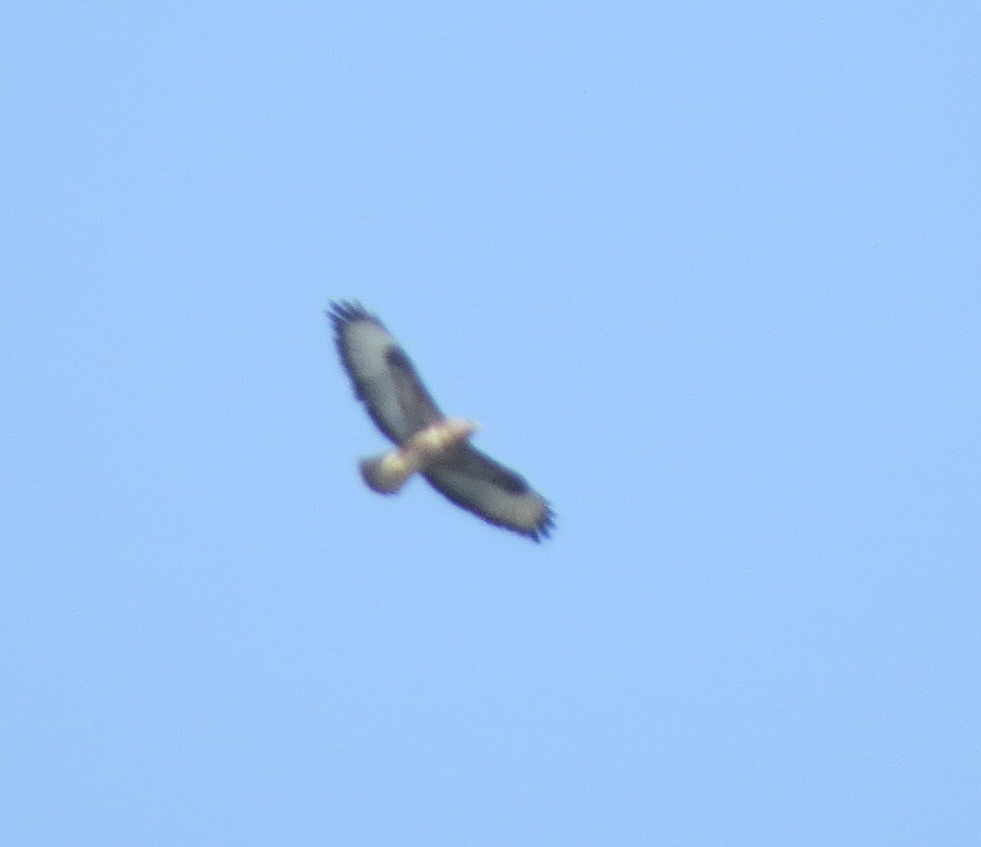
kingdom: Animalia
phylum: Chordata
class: Aves
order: Accipitriformes
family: Accipitridae
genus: Buteo
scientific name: Buteo buteo
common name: Common buzzard
